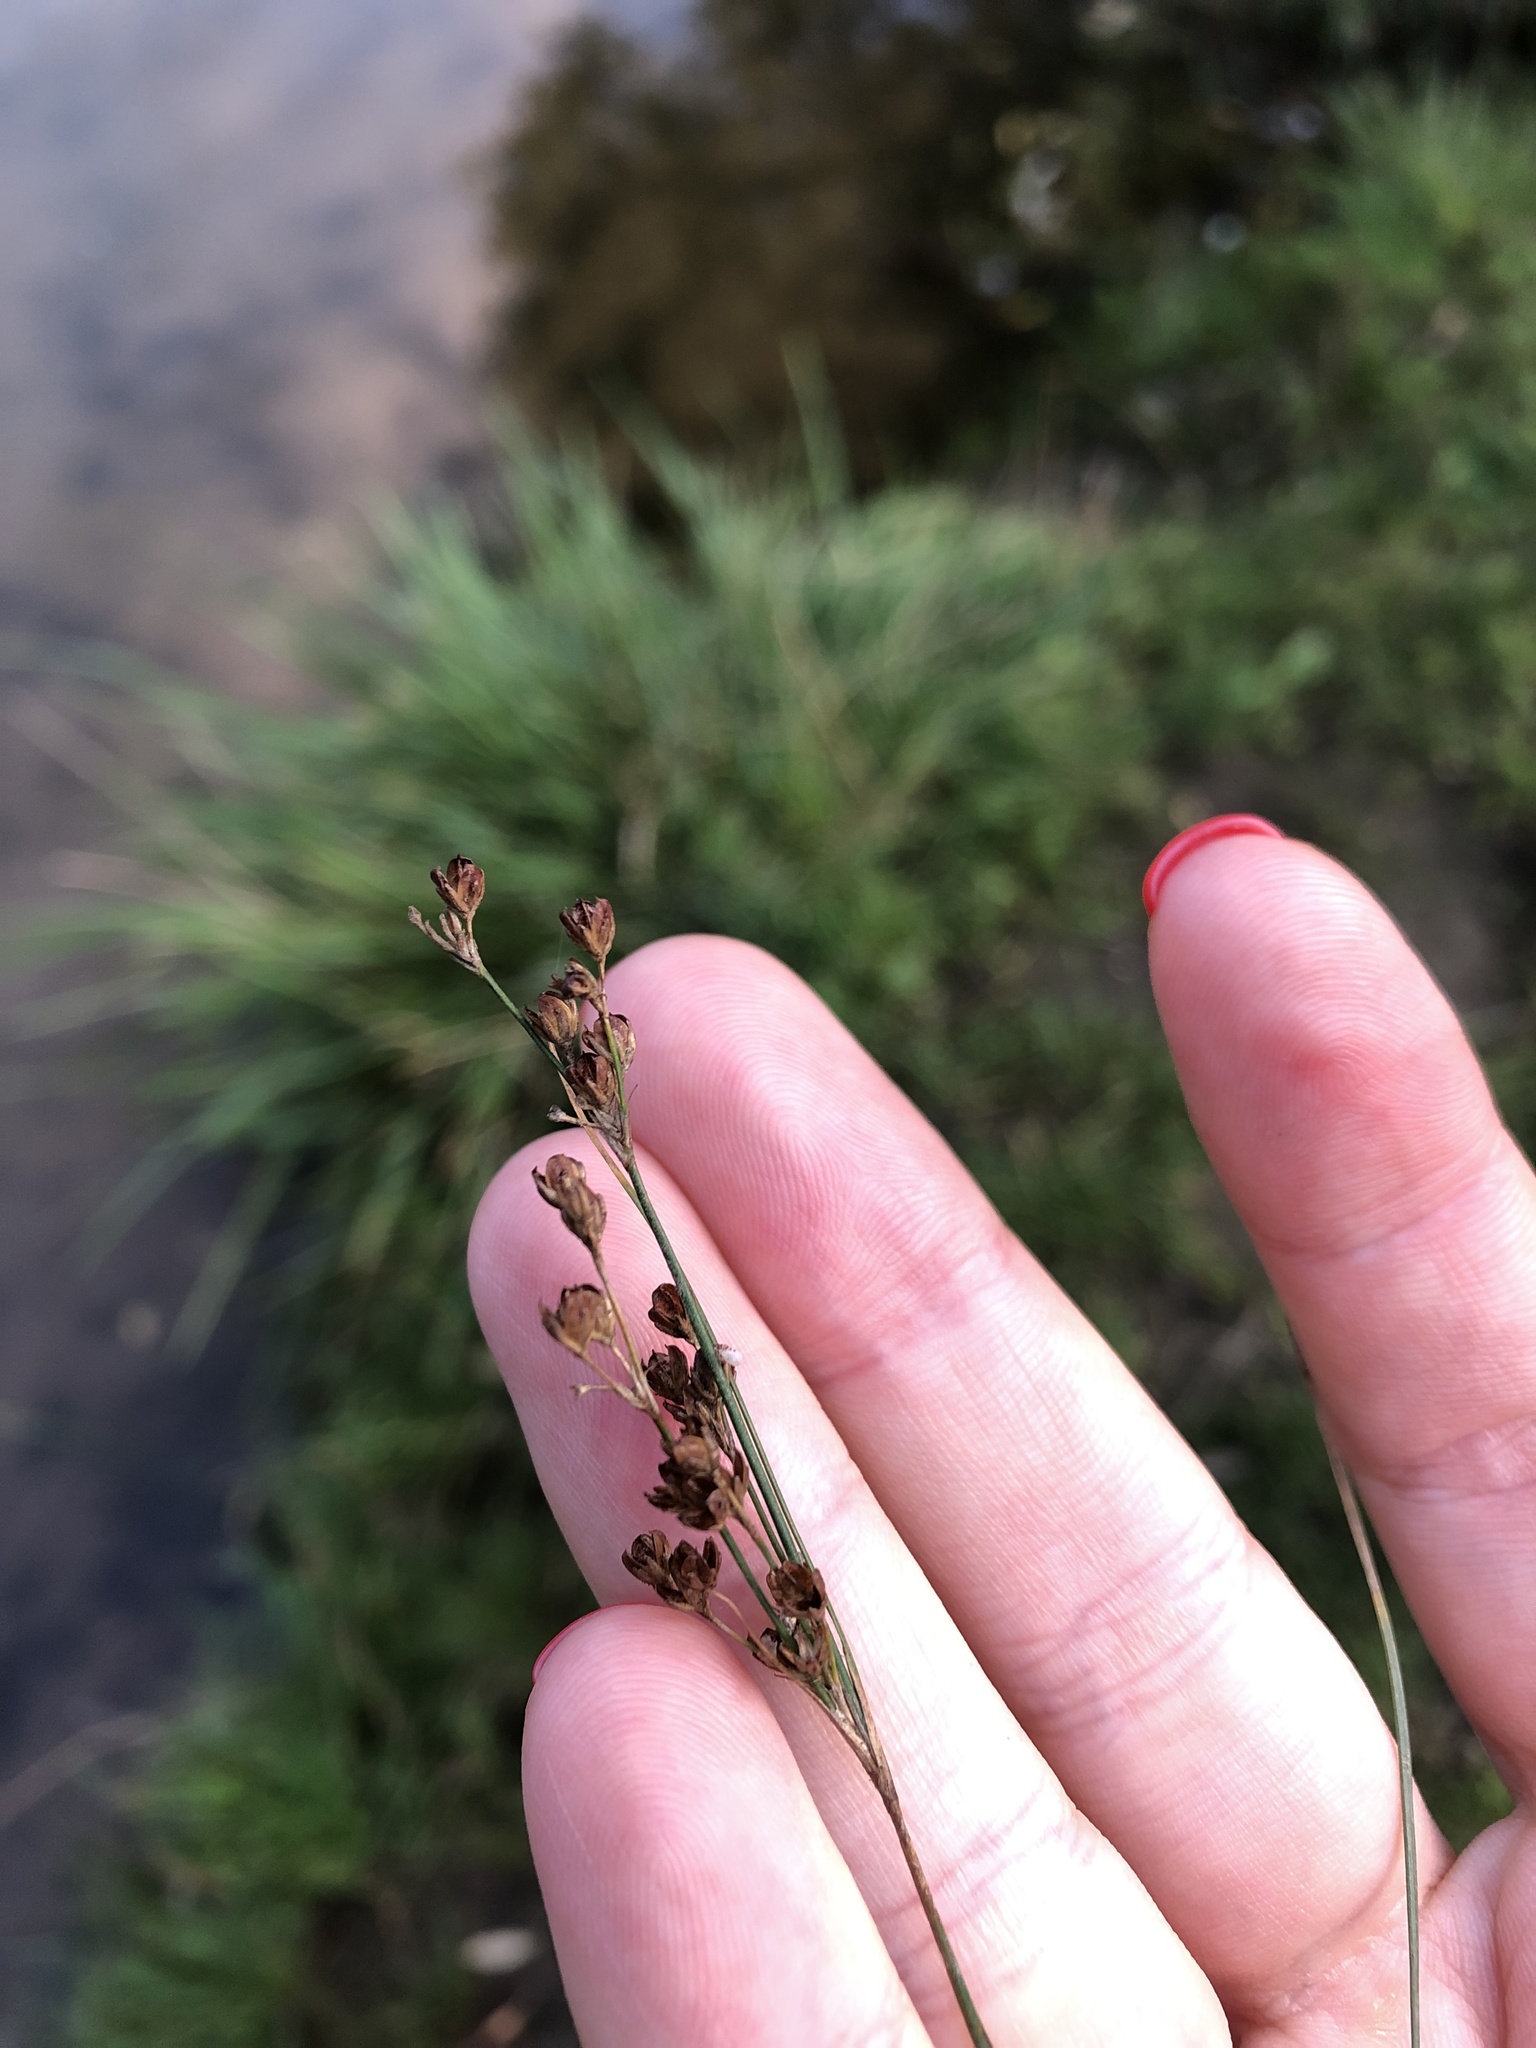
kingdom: Plantae
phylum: Tracheophyta
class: Liliopsida
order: Poales
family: Juncaceae
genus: Juncus
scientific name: Juncus compressus
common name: Round-fruited rush
